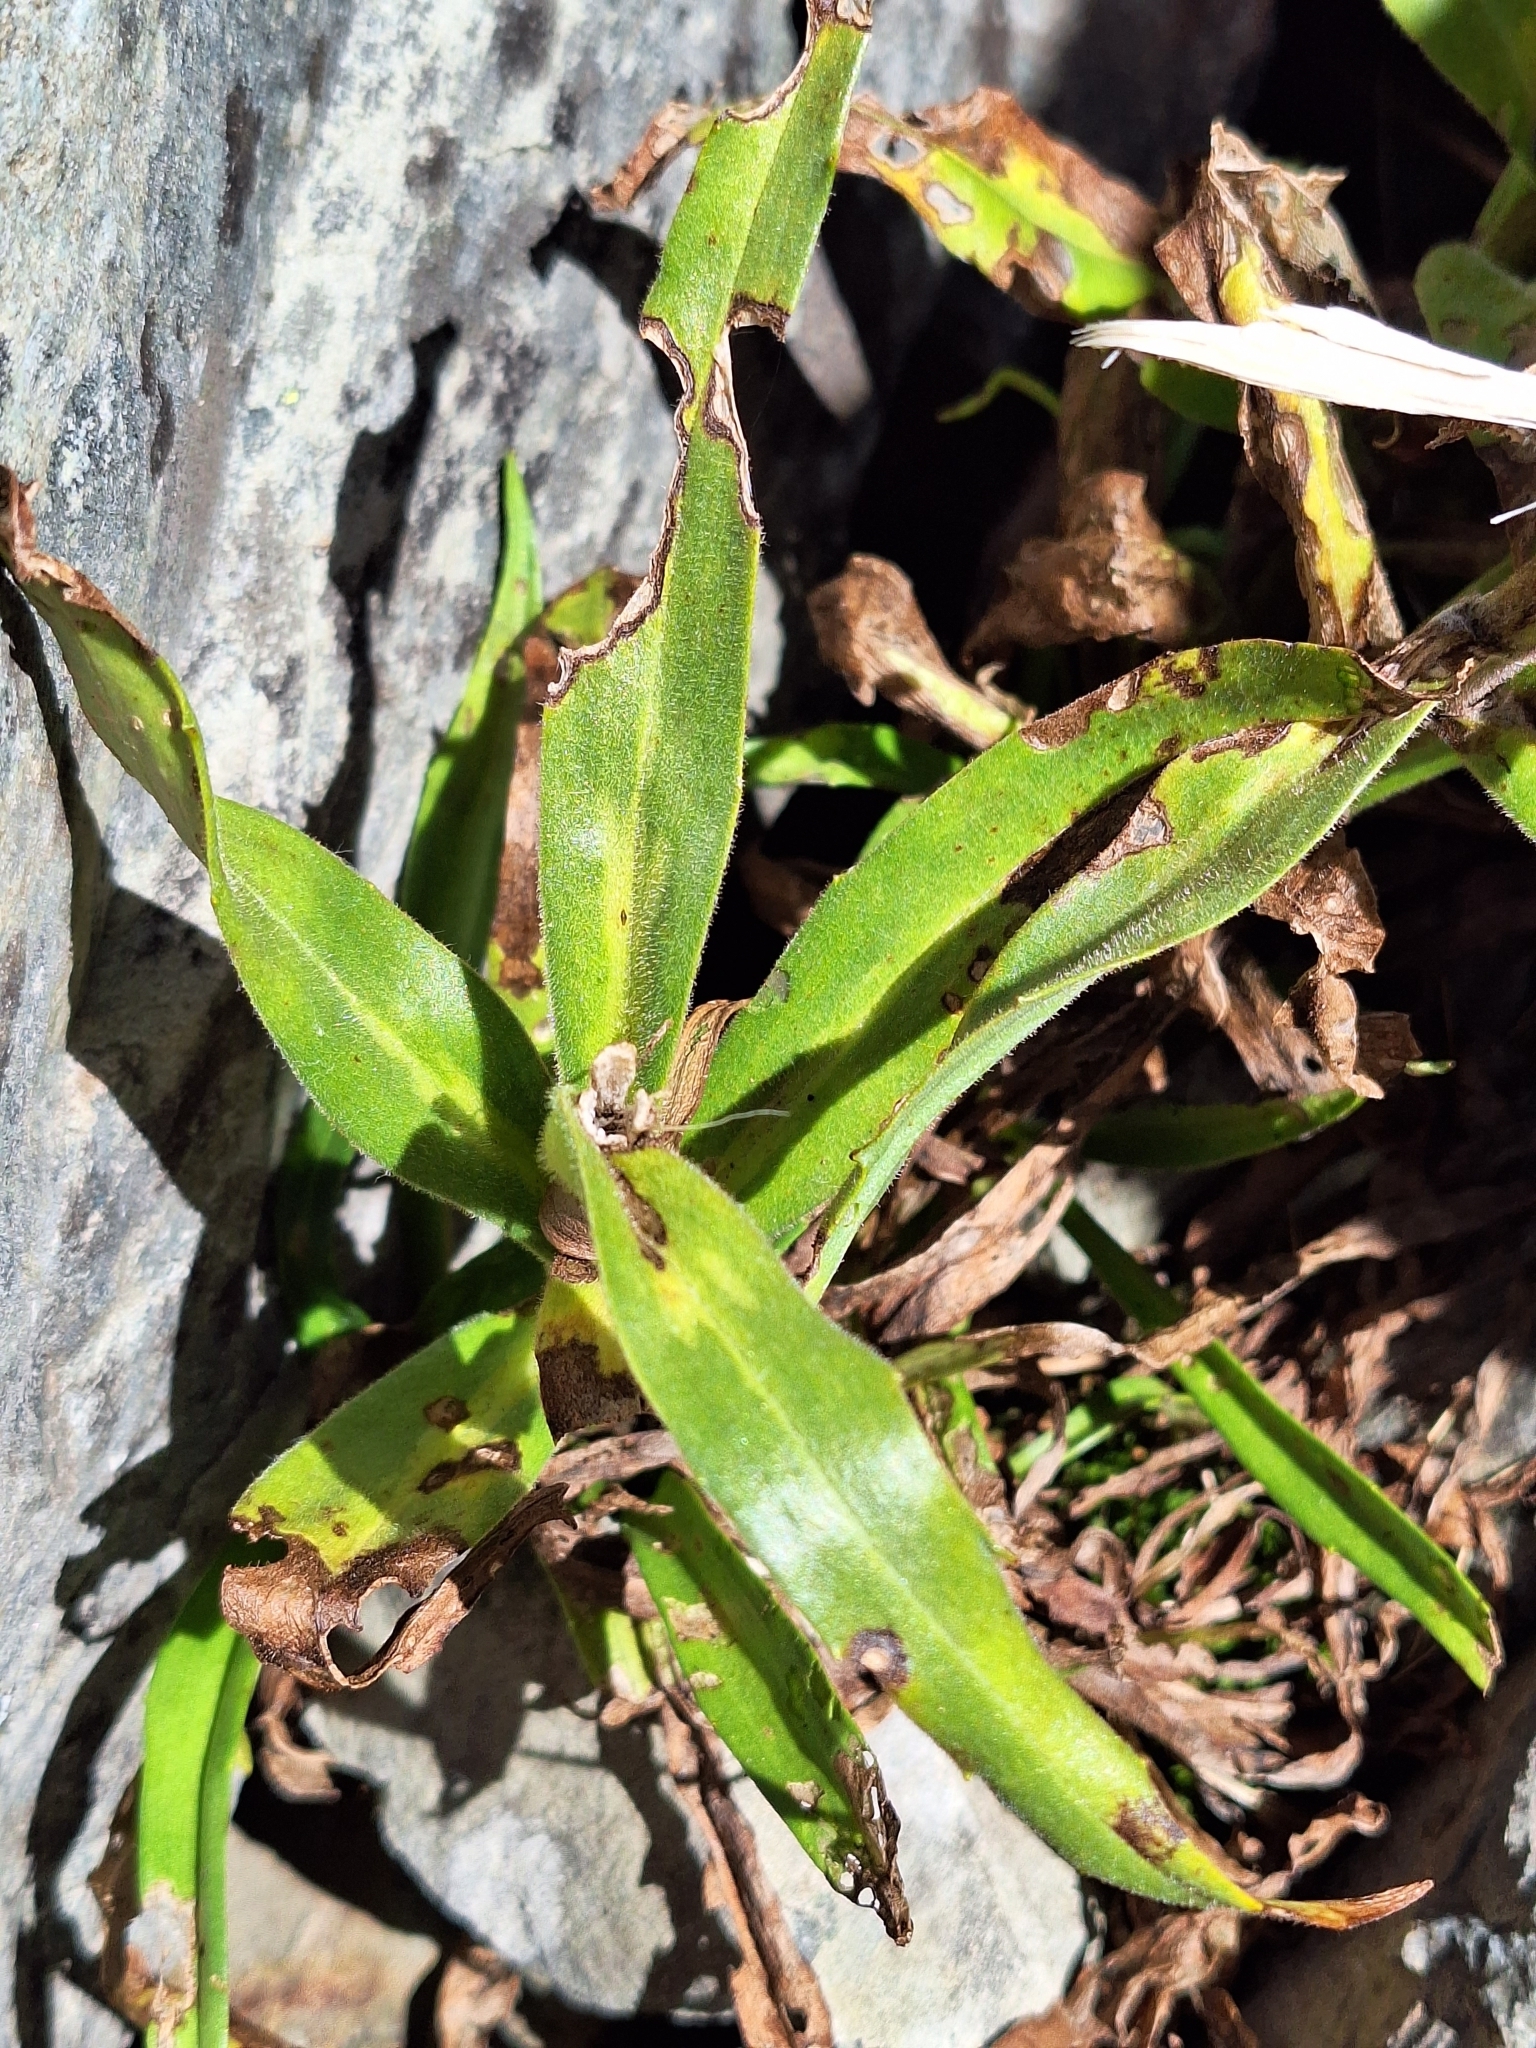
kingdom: Plantae
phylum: Tracheophyta
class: Magnoliopsida
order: Asterales
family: Asteraceae
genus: Dolichoglottis
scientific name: Dolichoglottis scorzoneroides
